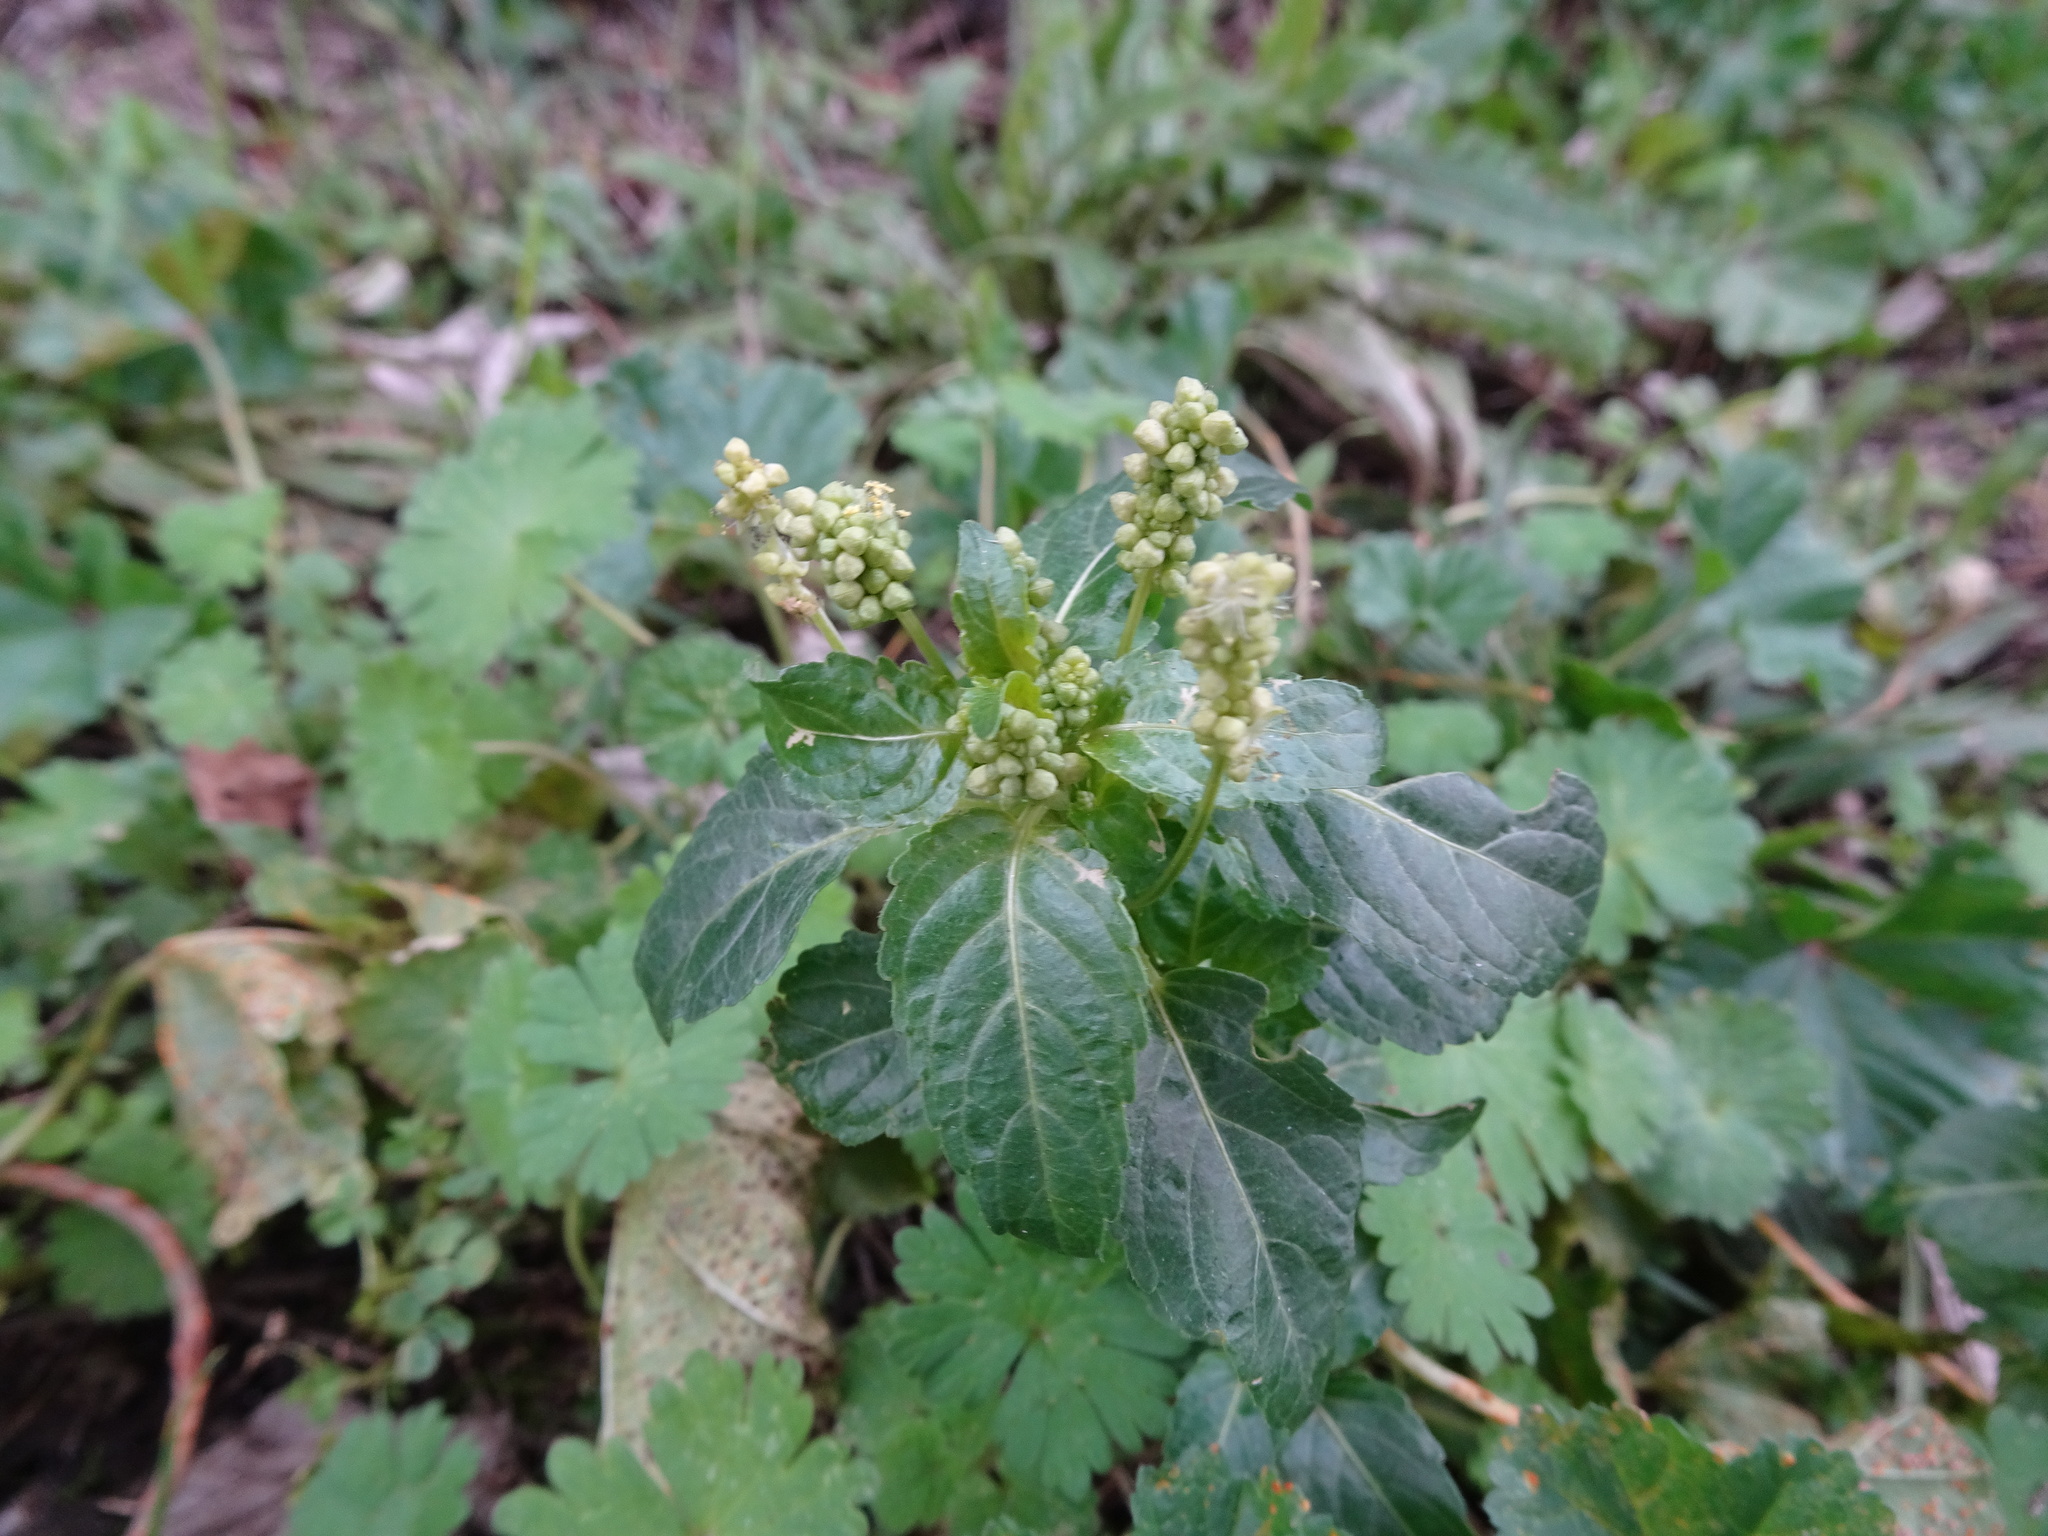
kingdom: Plantae
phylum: Tracheophyta
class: Magnoliopsida
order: Malpighiales
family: Euphorbiaceae
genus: Mercurialis
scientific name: Mercurialis annua
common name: Annual mercury
